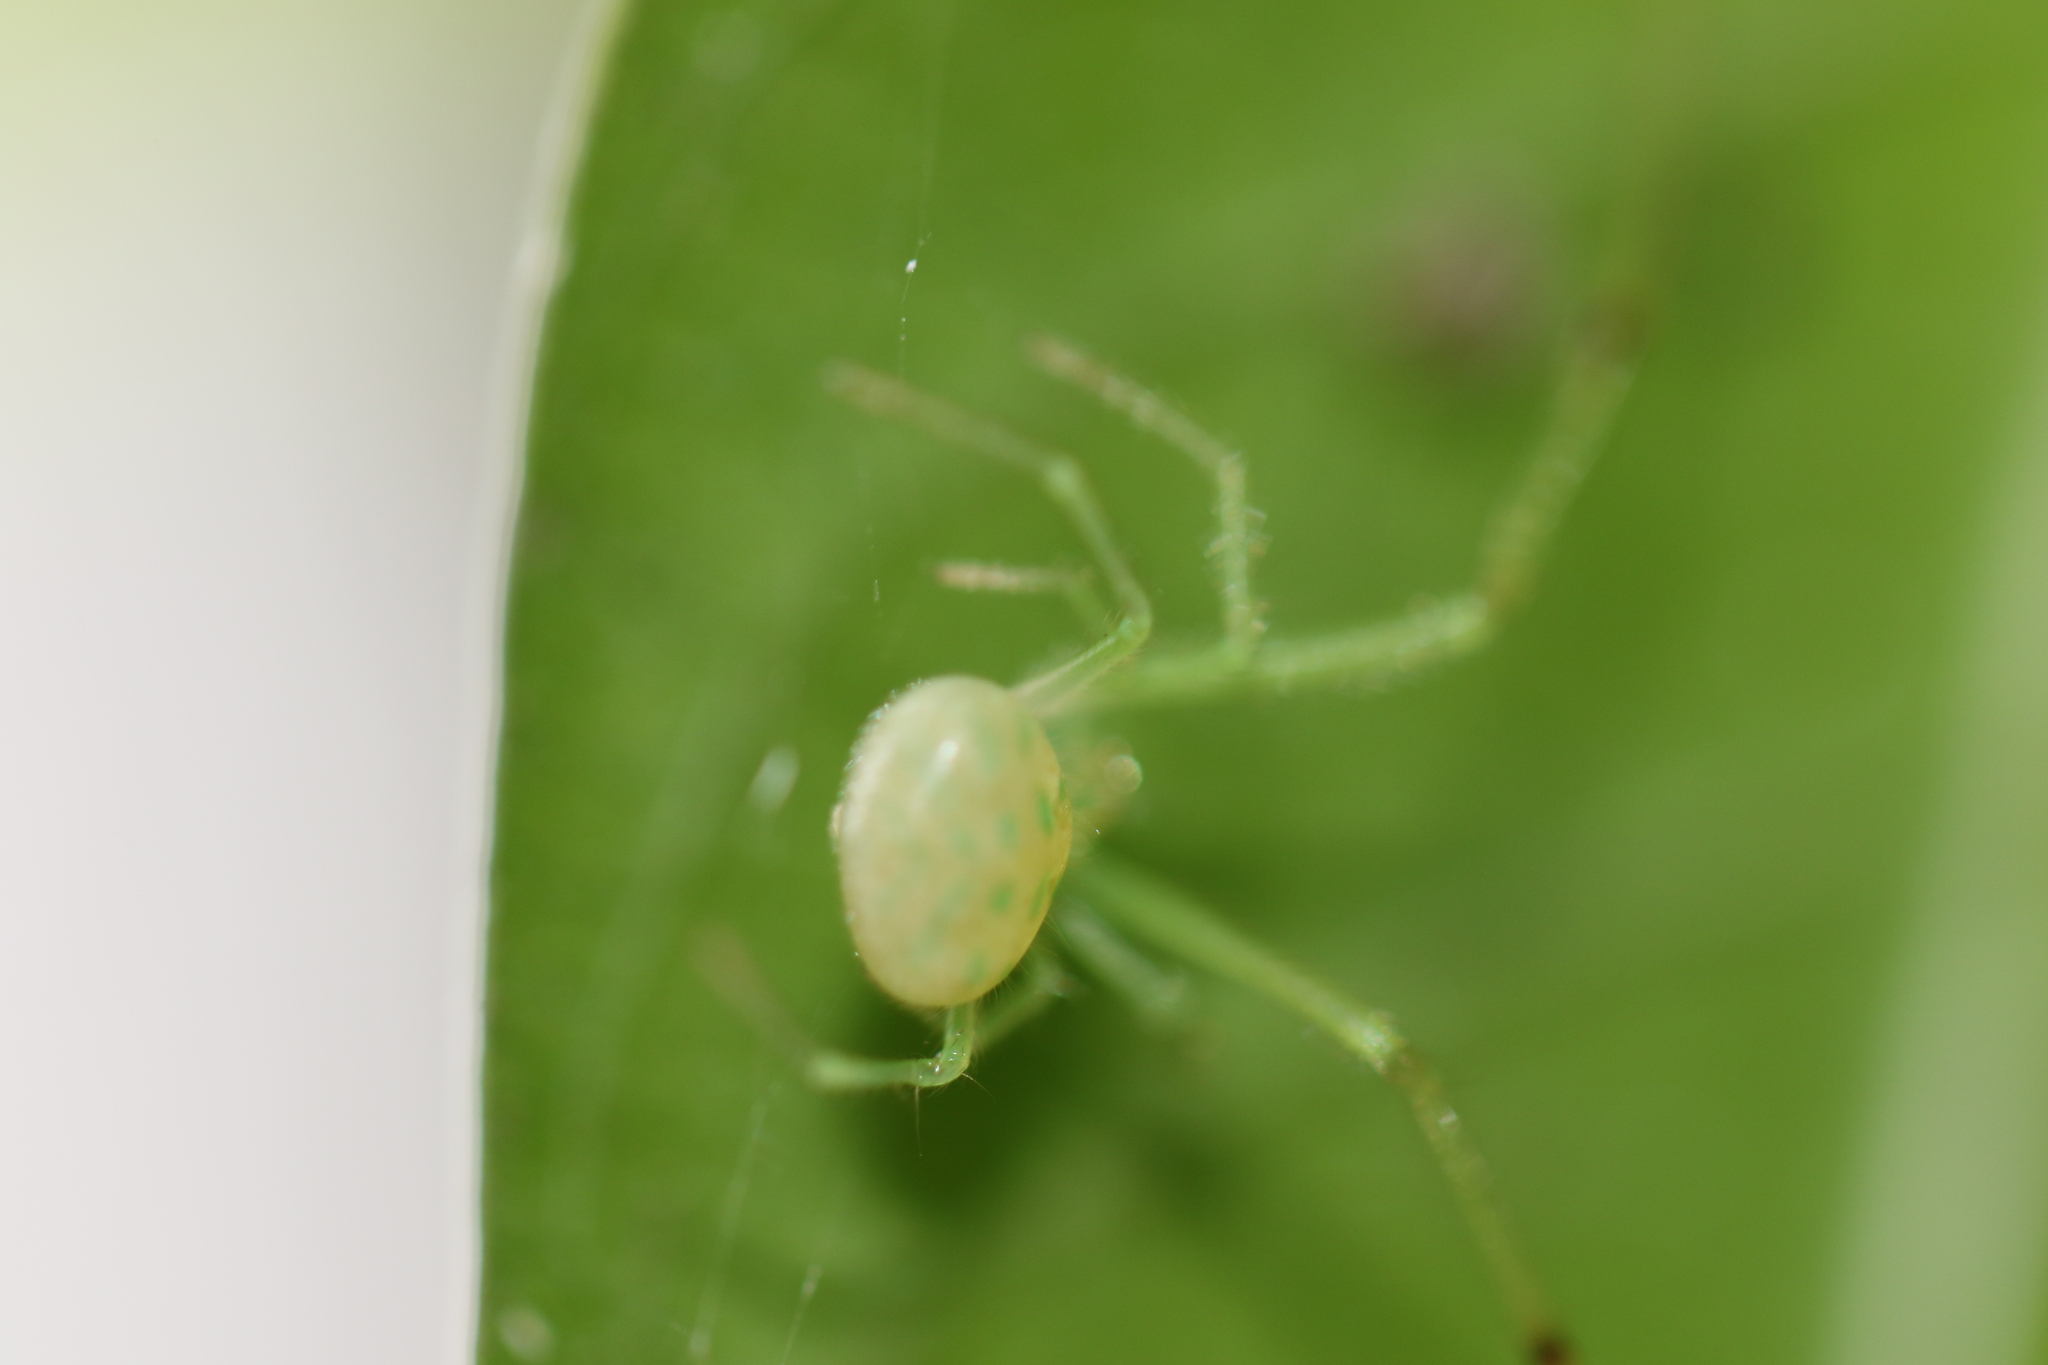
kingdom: Animalia
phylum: Arthropoda
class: Arachnida
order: Araneae
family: Theridiidae
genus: Theridion
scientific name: Theridion biezankoi
